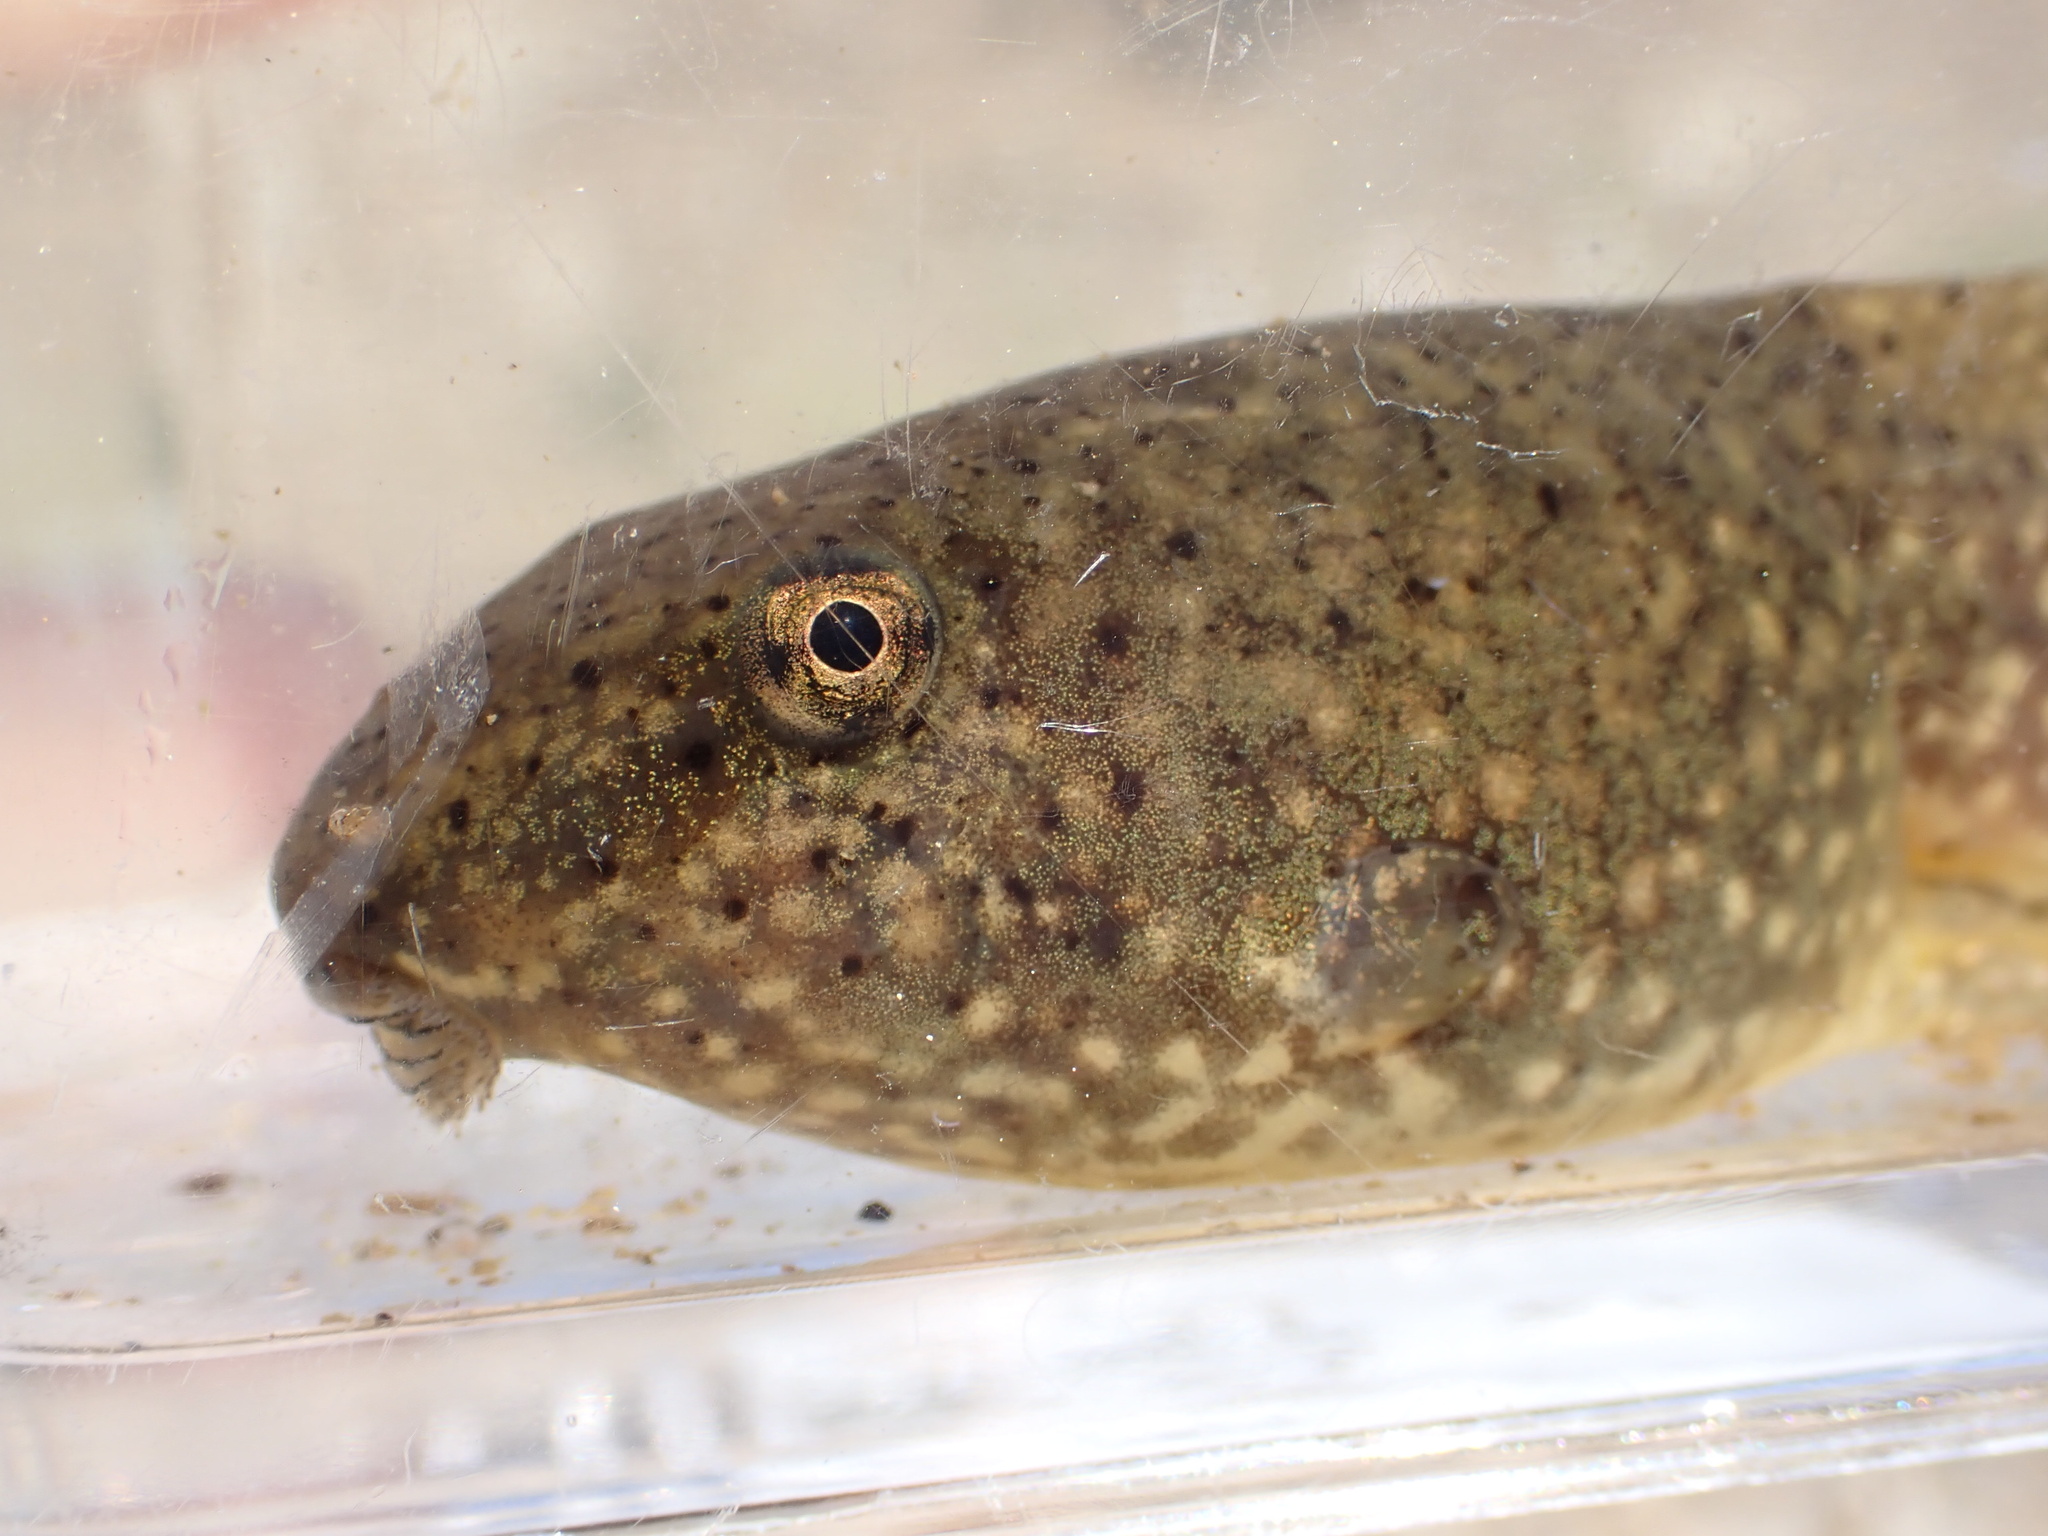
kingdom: Animalia
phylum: Chordata
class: Amphibia
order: Anura
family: Ranidae
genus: Lithobates
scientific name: Lithobates catesbeianus
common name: American bullfrog
